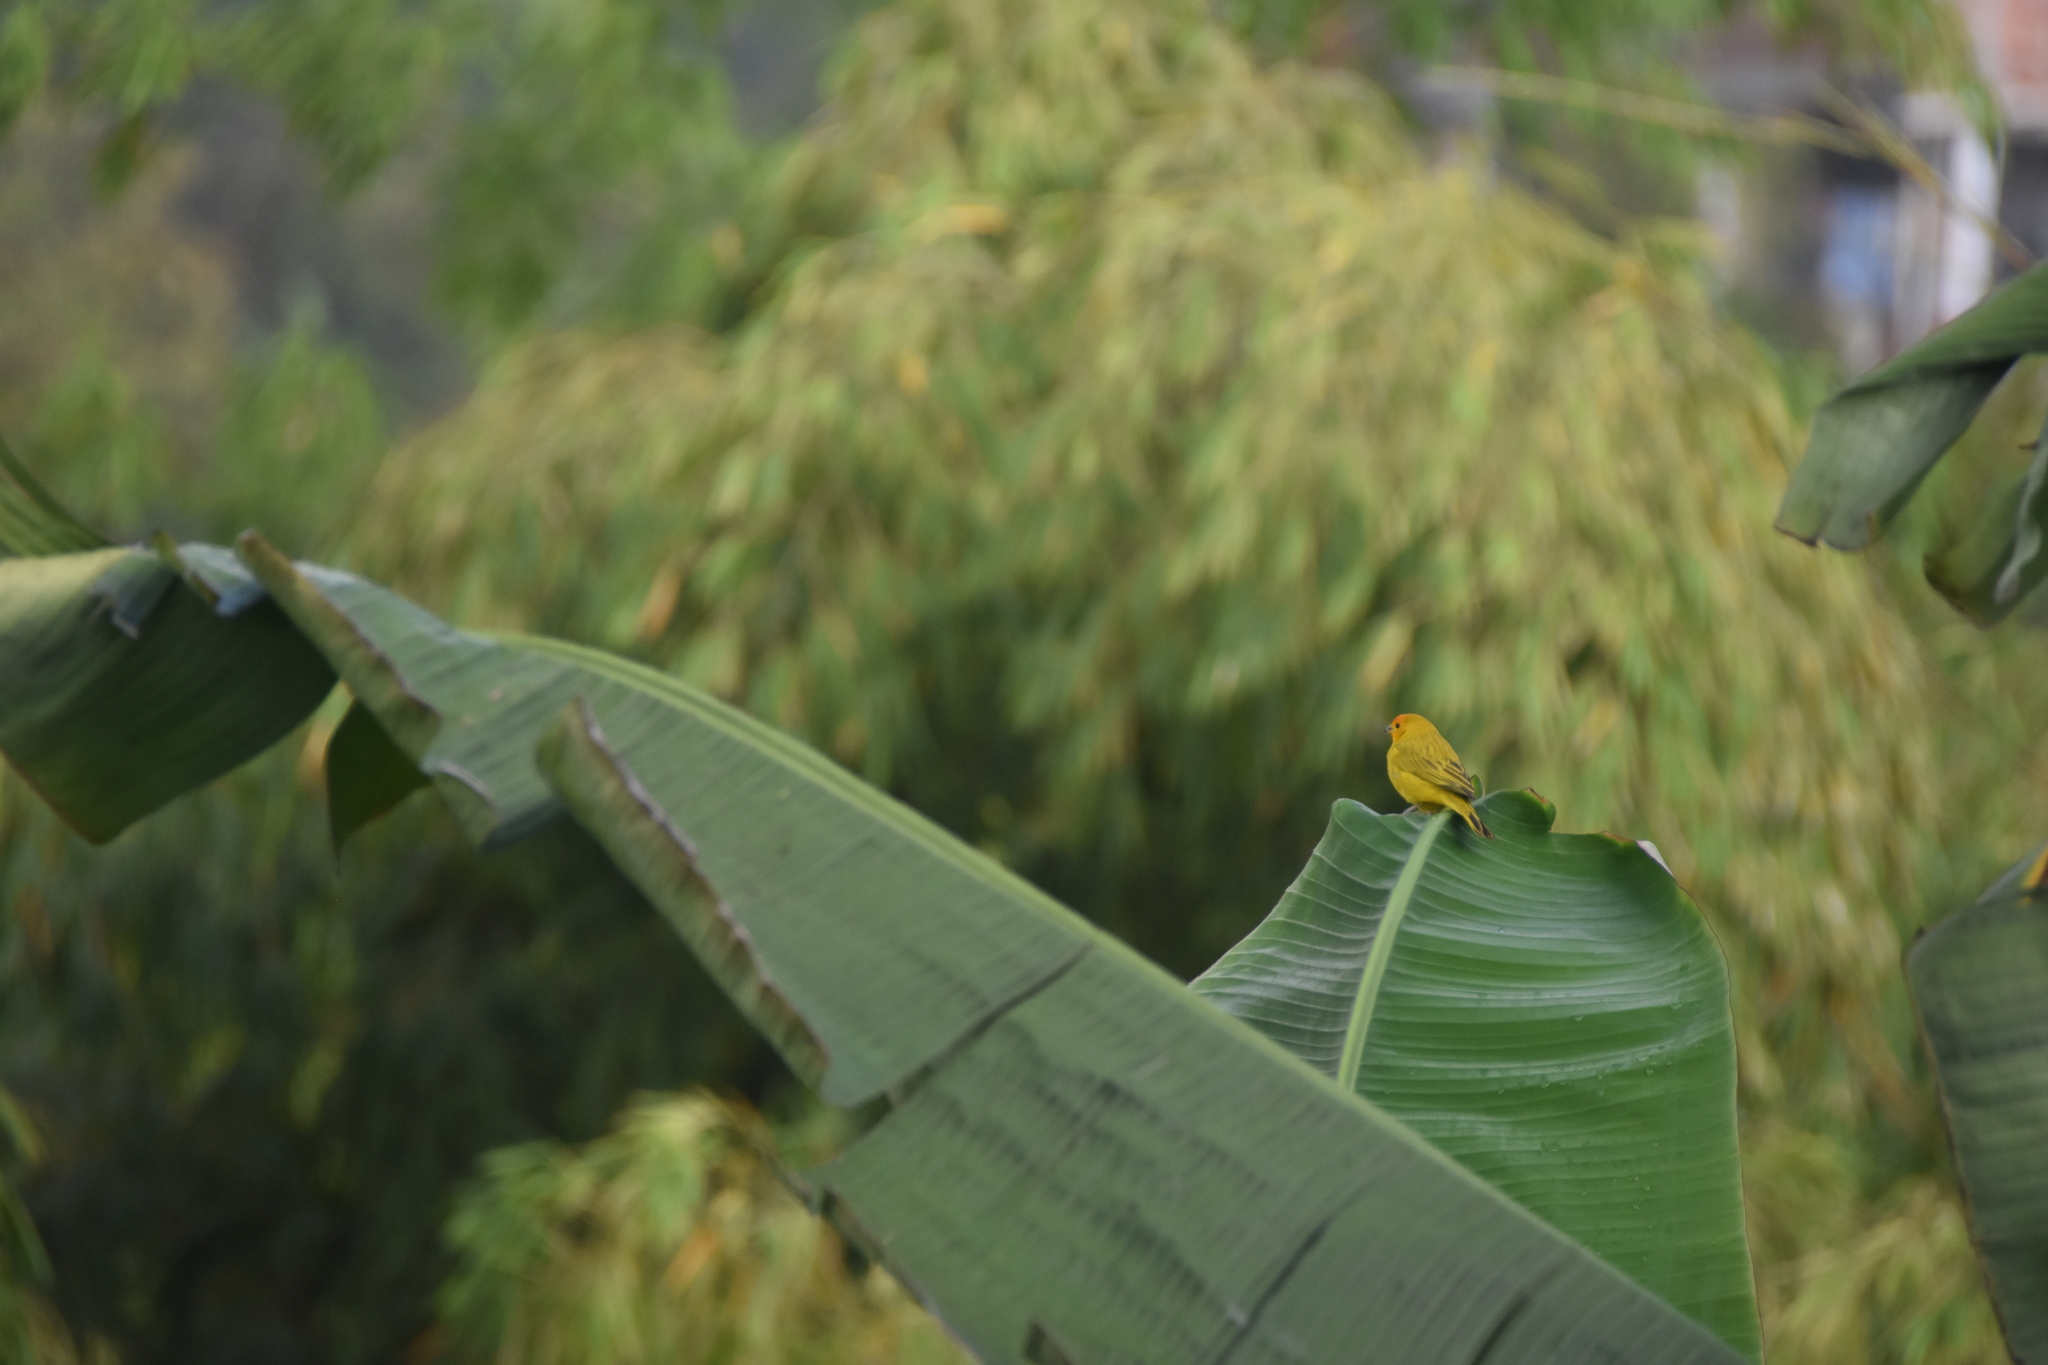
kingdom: Animalia
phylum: Chordata
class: Aves
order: Passeriformes
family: Thraupidae
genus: Sicalis
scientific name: Sicalis flaveola
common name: Saffron finch
